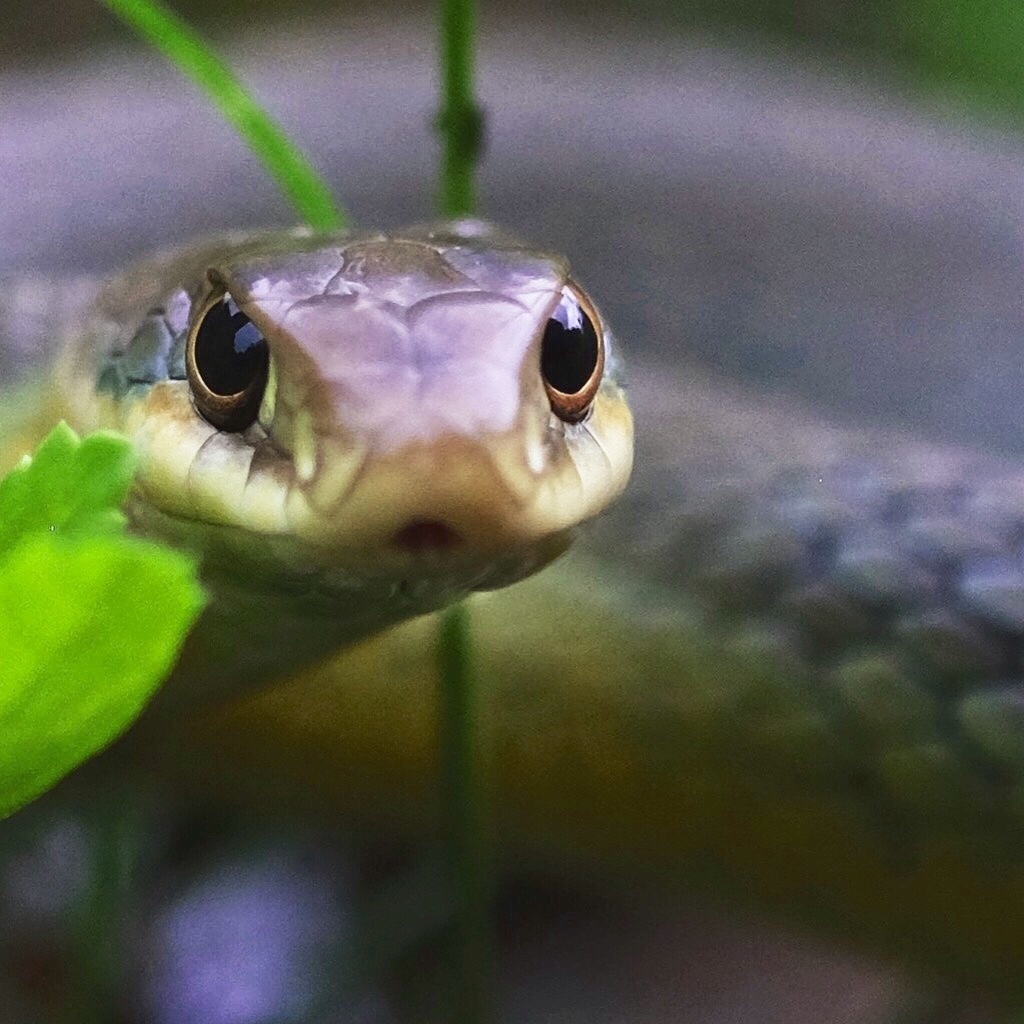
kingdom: Animalia
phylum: Chordata
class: Squamata
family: Colubridae
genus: Coluber
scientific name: Coluber constrictor
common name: Eastern racer
